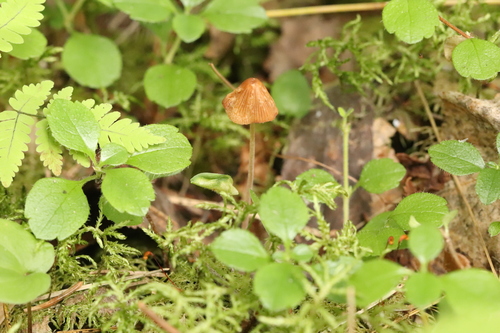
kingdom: Fungi
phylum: Basidiomycota
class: Agaricomycetes
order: Agaricales
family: Bolbitiaceae
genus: Pholiotina
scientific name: Pholiotina
